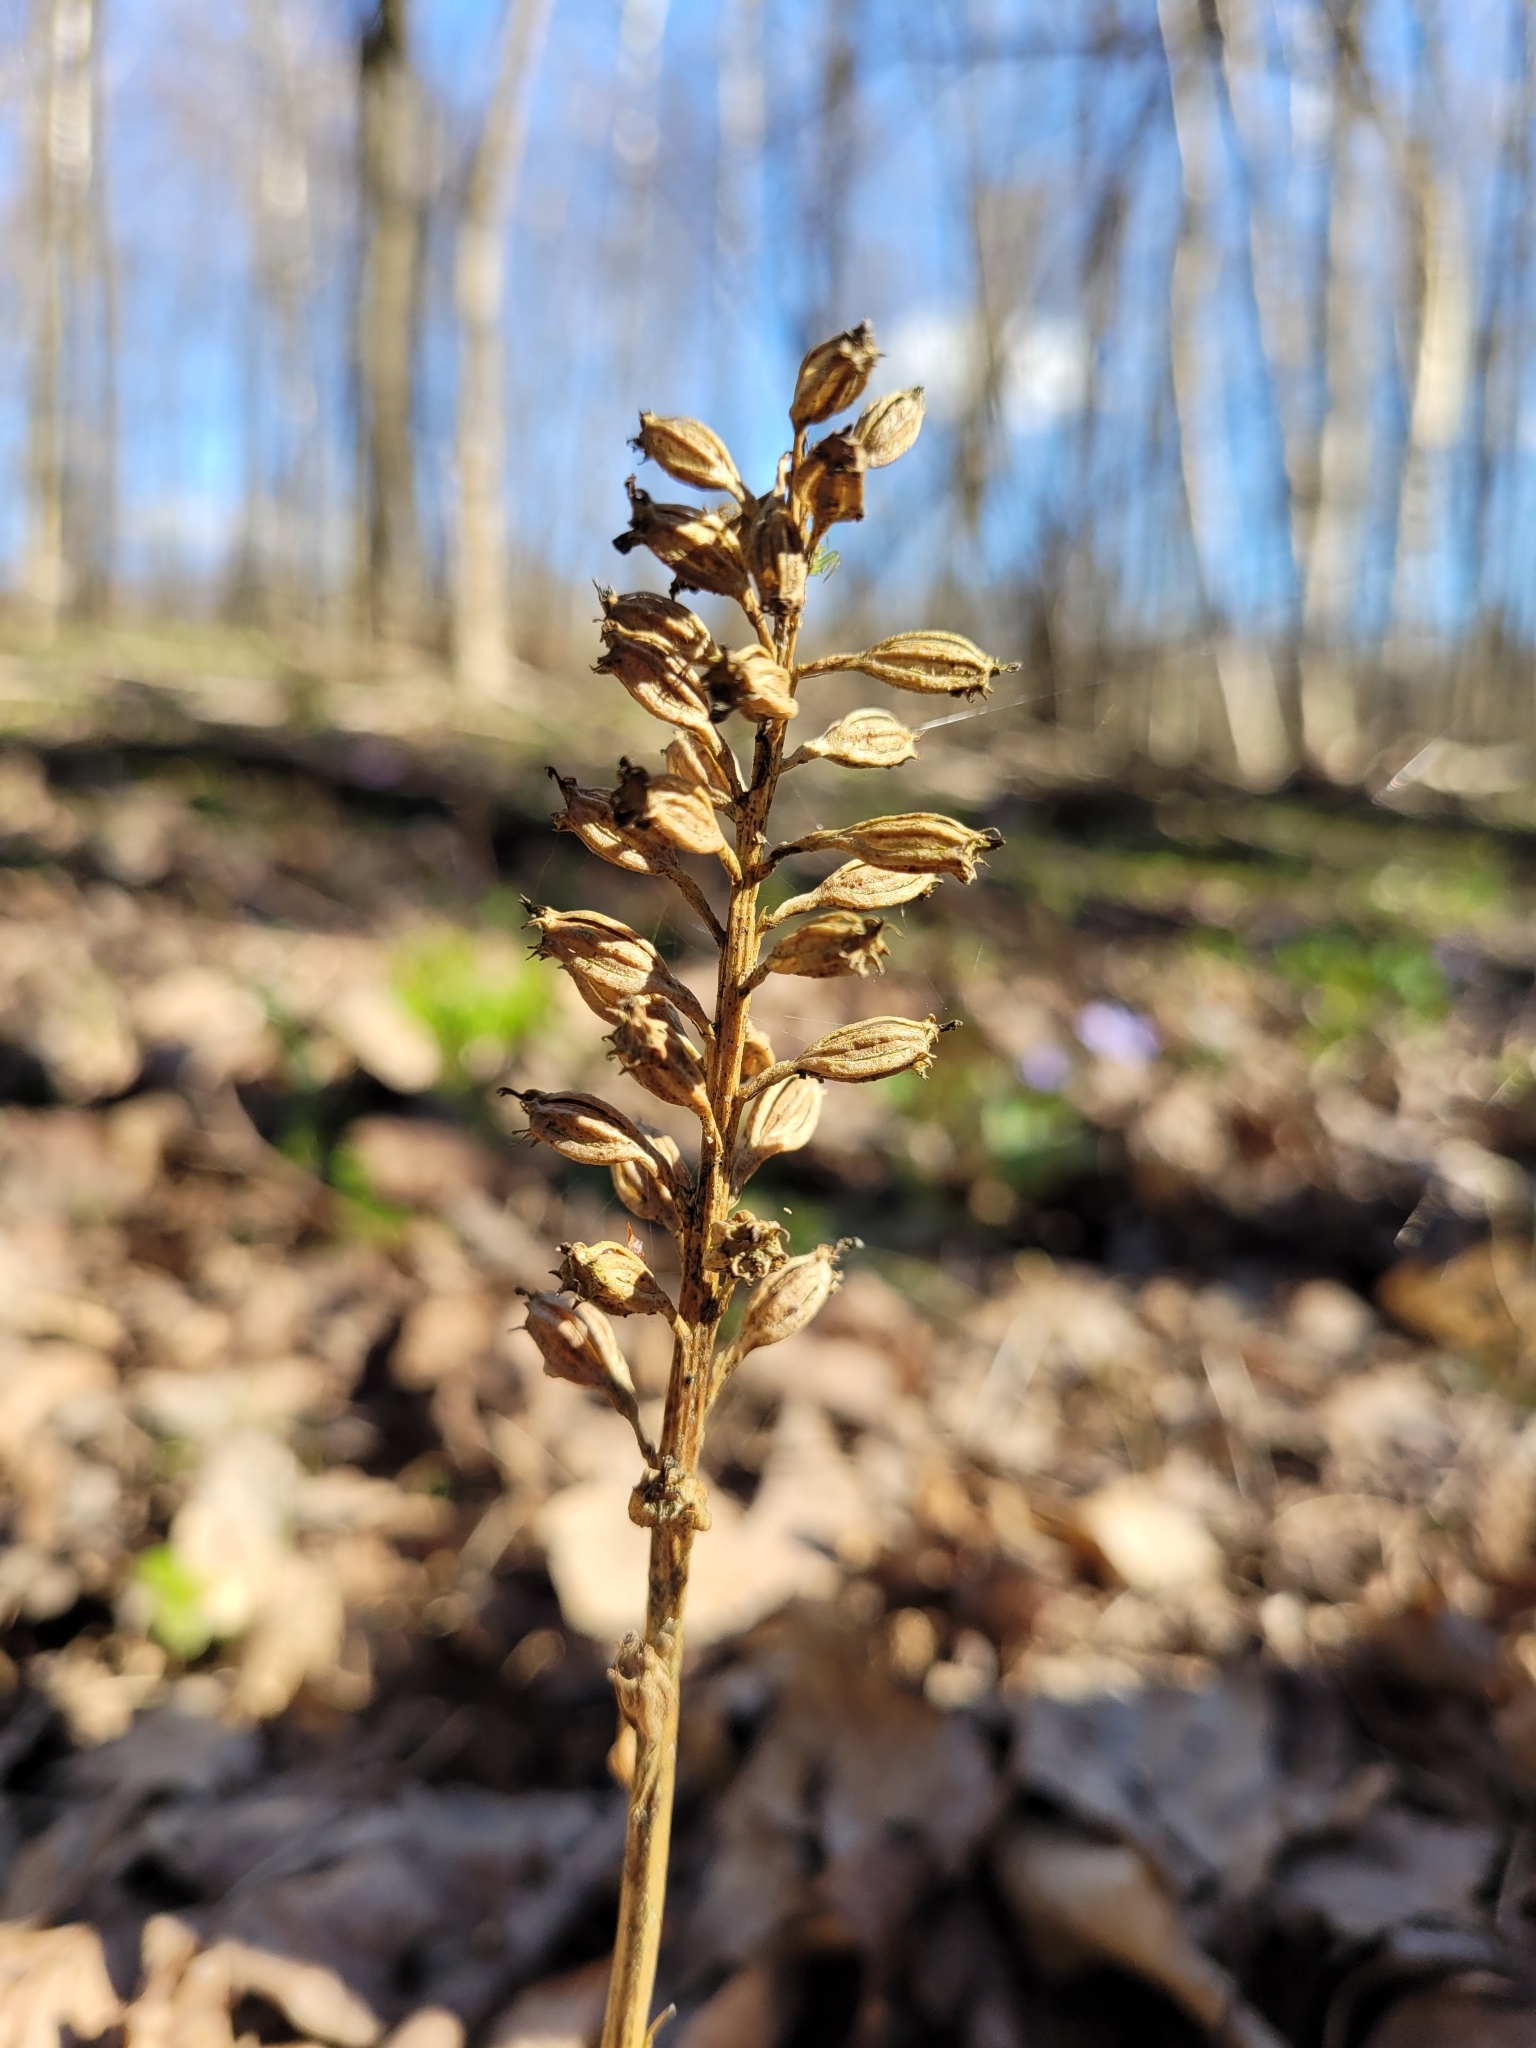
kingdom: Plantae
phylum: Tracheophyta
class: Liliopsida
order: Asparagales
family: Orchidaceae
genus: Neottia
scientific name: Neottia nidus-avis
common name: Bird's-nest orchid
